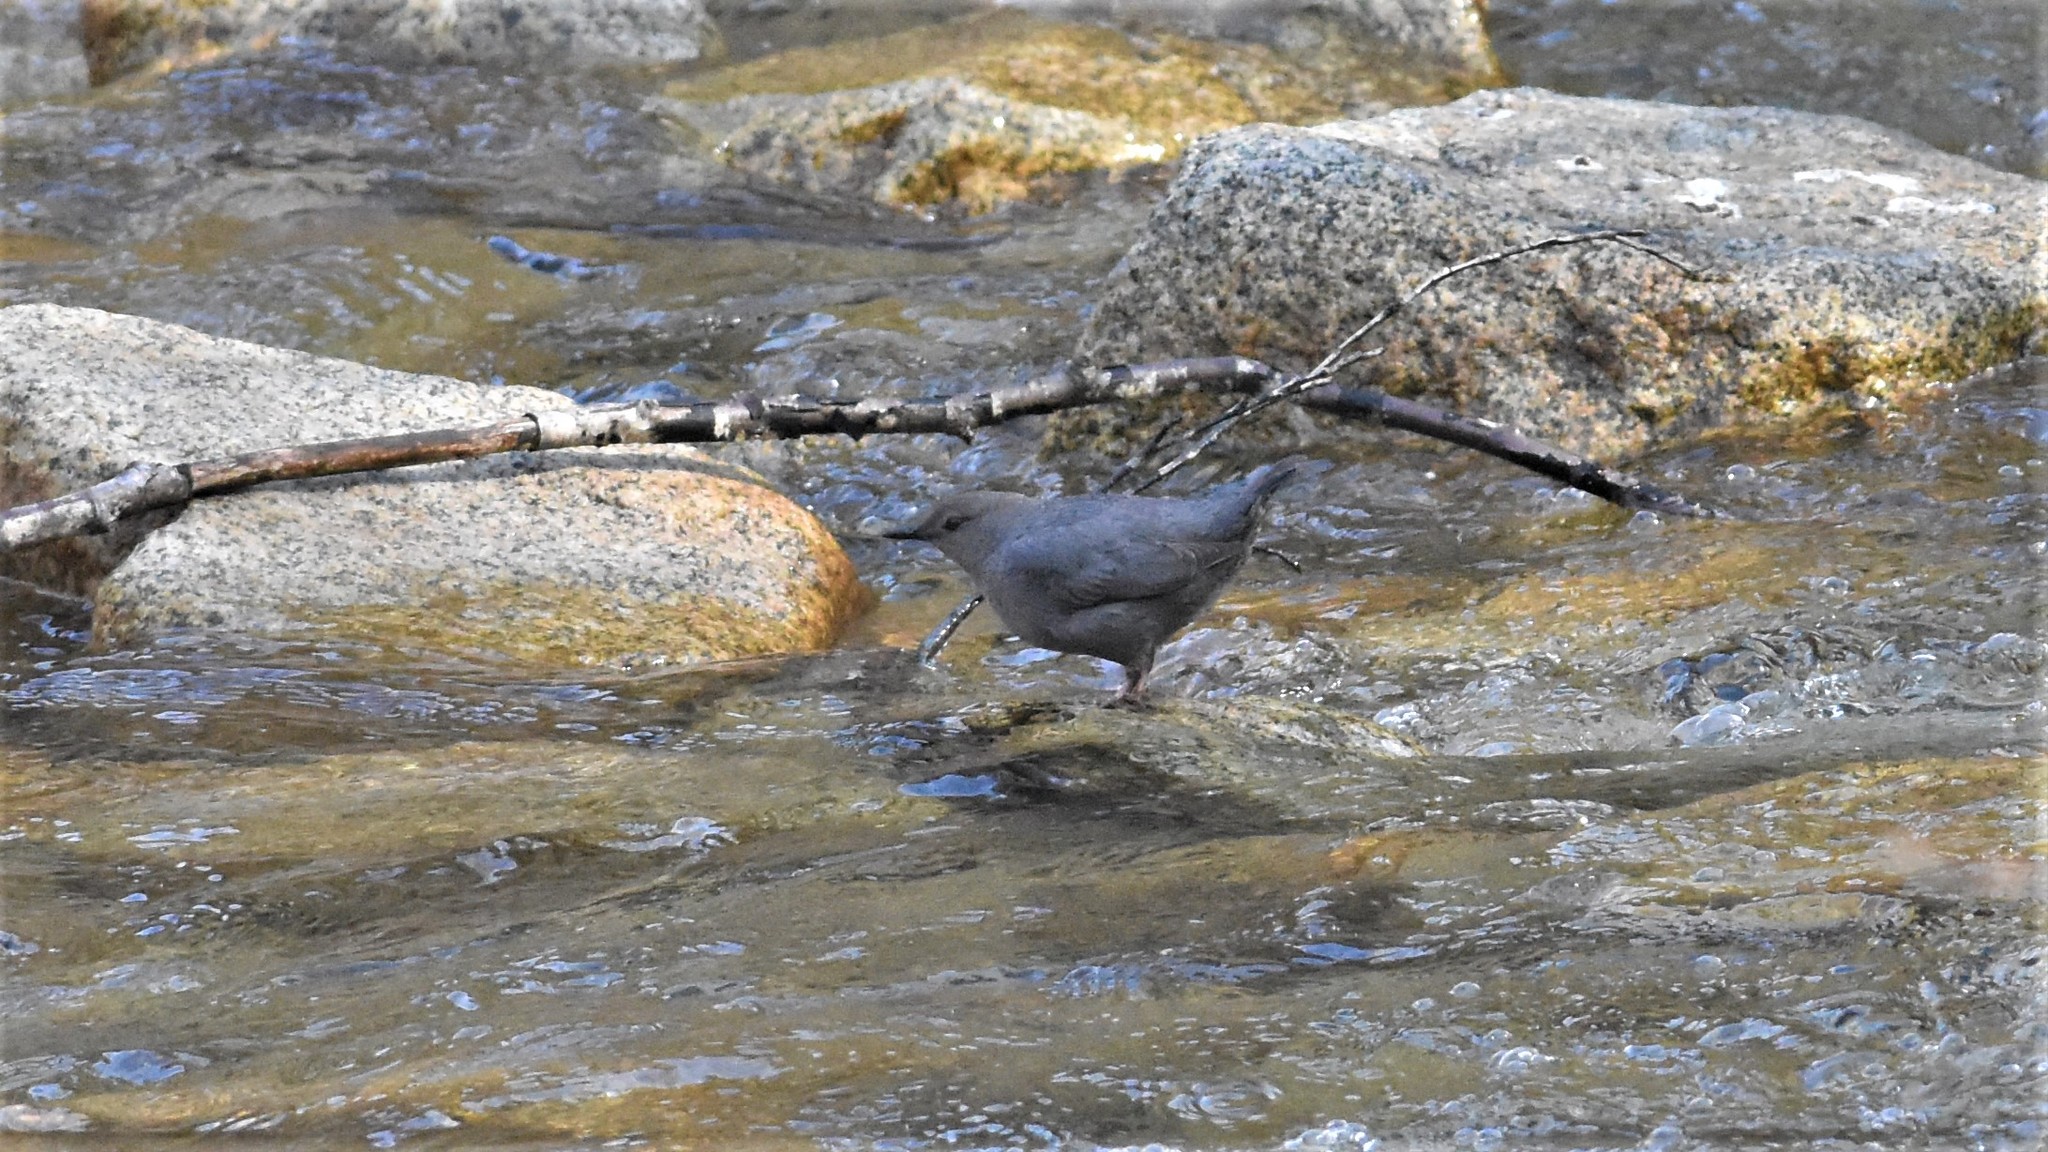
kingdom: Animalia
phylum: Chordata
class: Aves
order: Passeriformes
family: Cinclidae
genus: Cinclus
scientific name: Cinclus mexicanus
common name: American dipper
